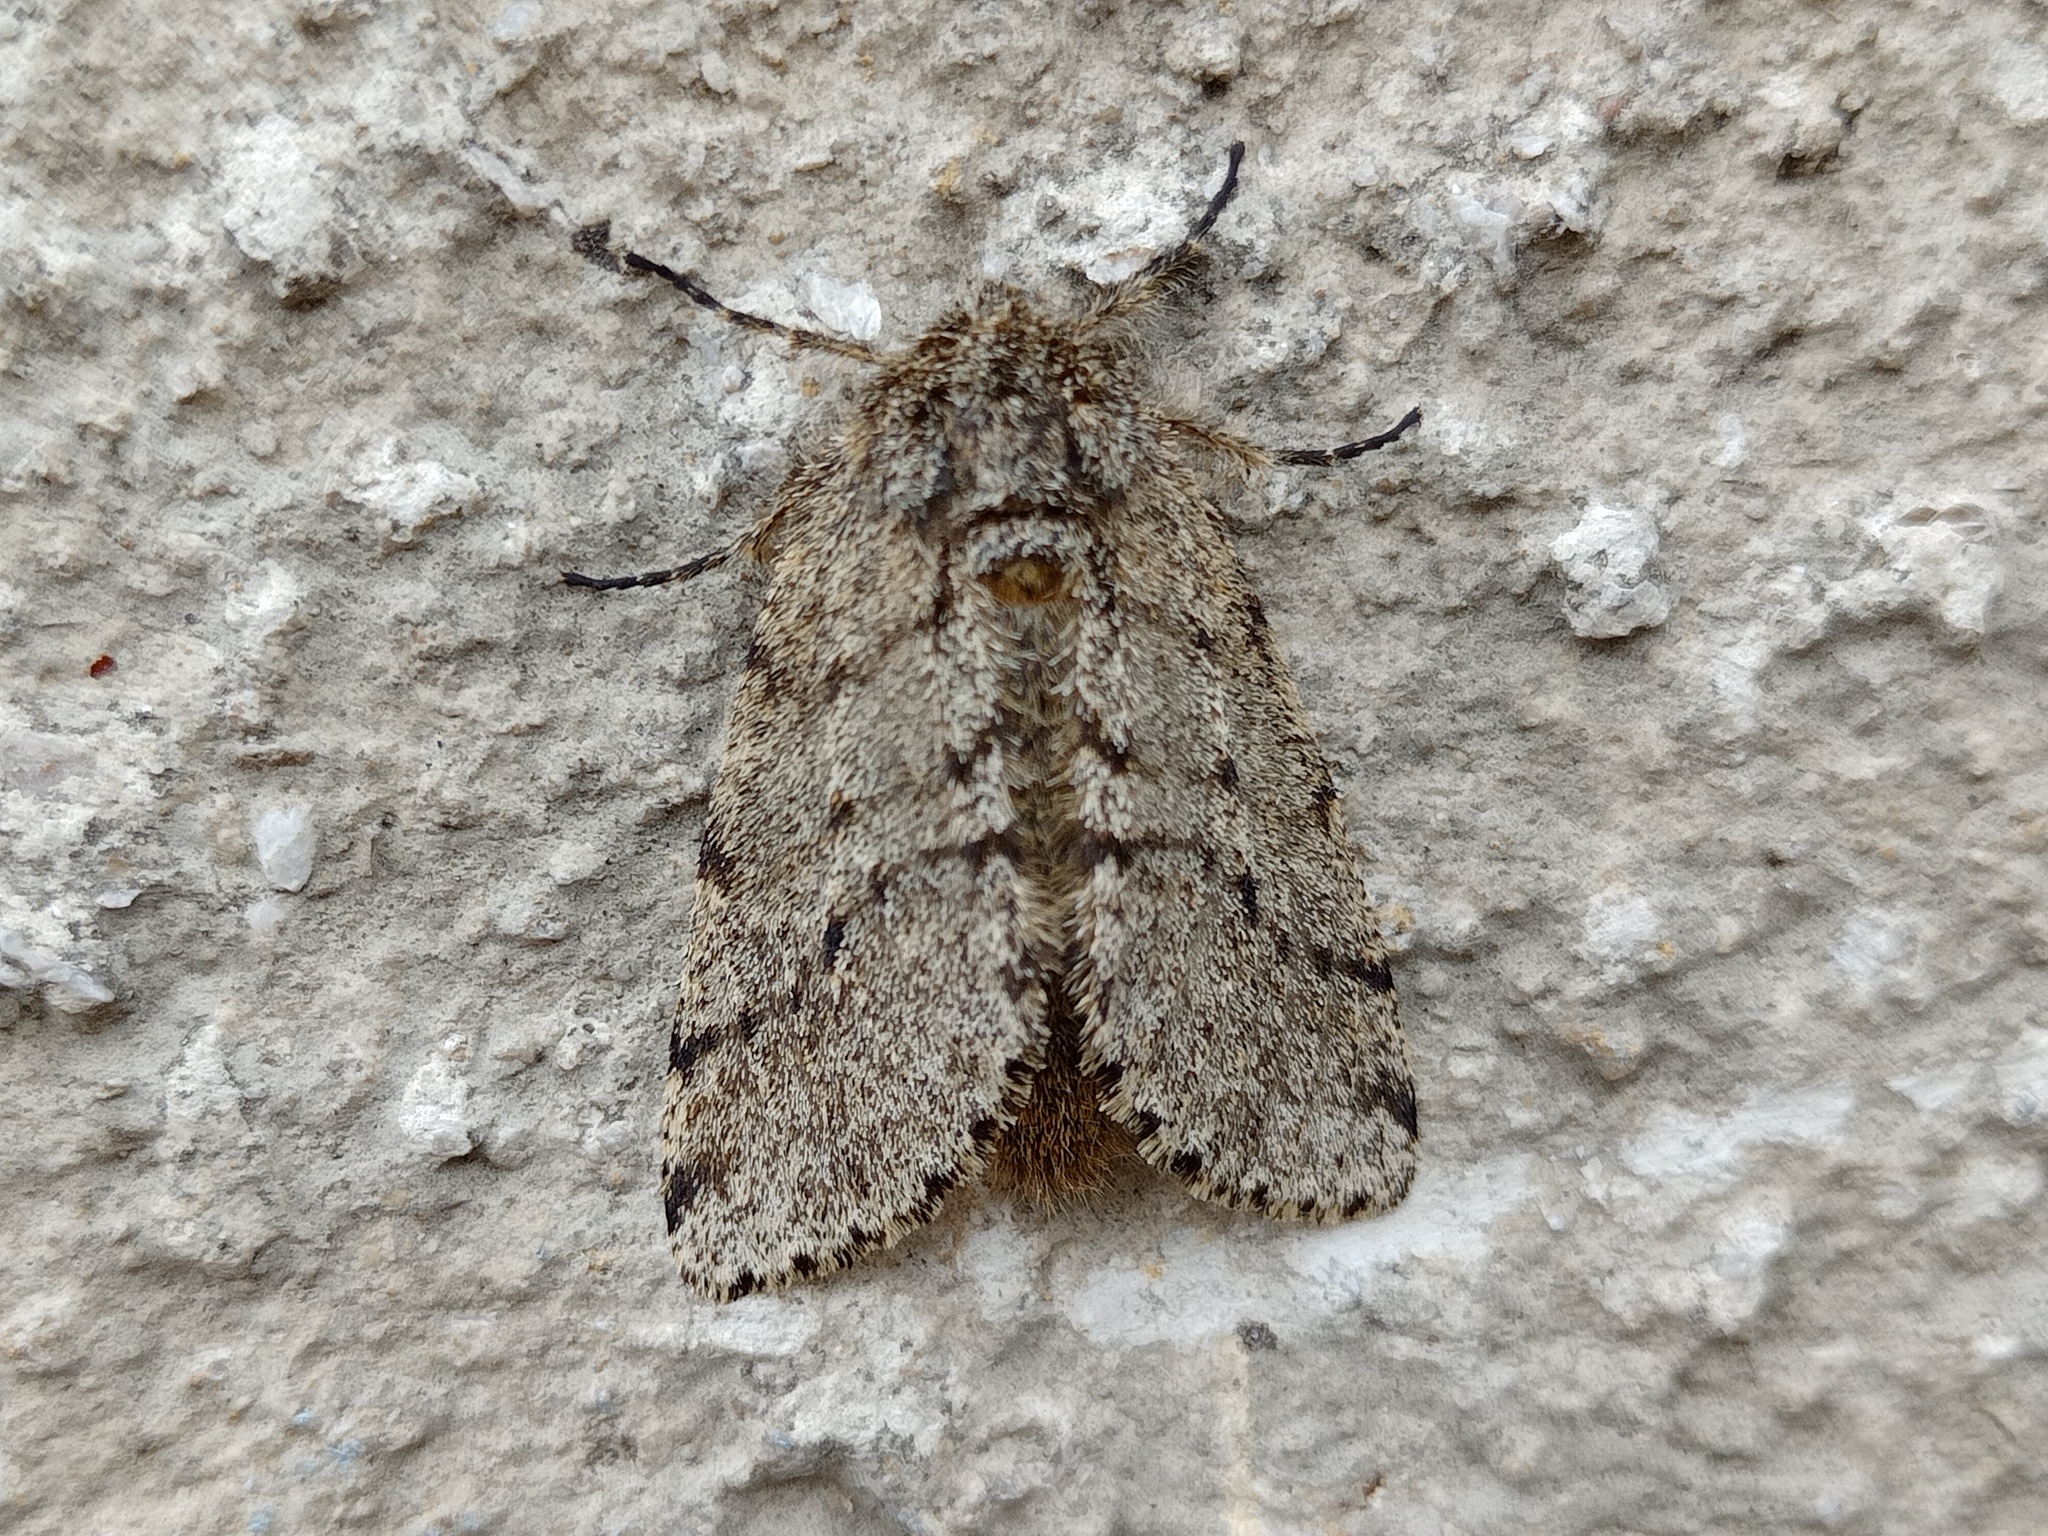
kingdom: Animalia
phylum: Arthropoda
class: Insecta
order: Lepidoptera
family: Geometridae
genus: Lycia
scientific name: Lycia hirtaria
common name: Brindled beauty
